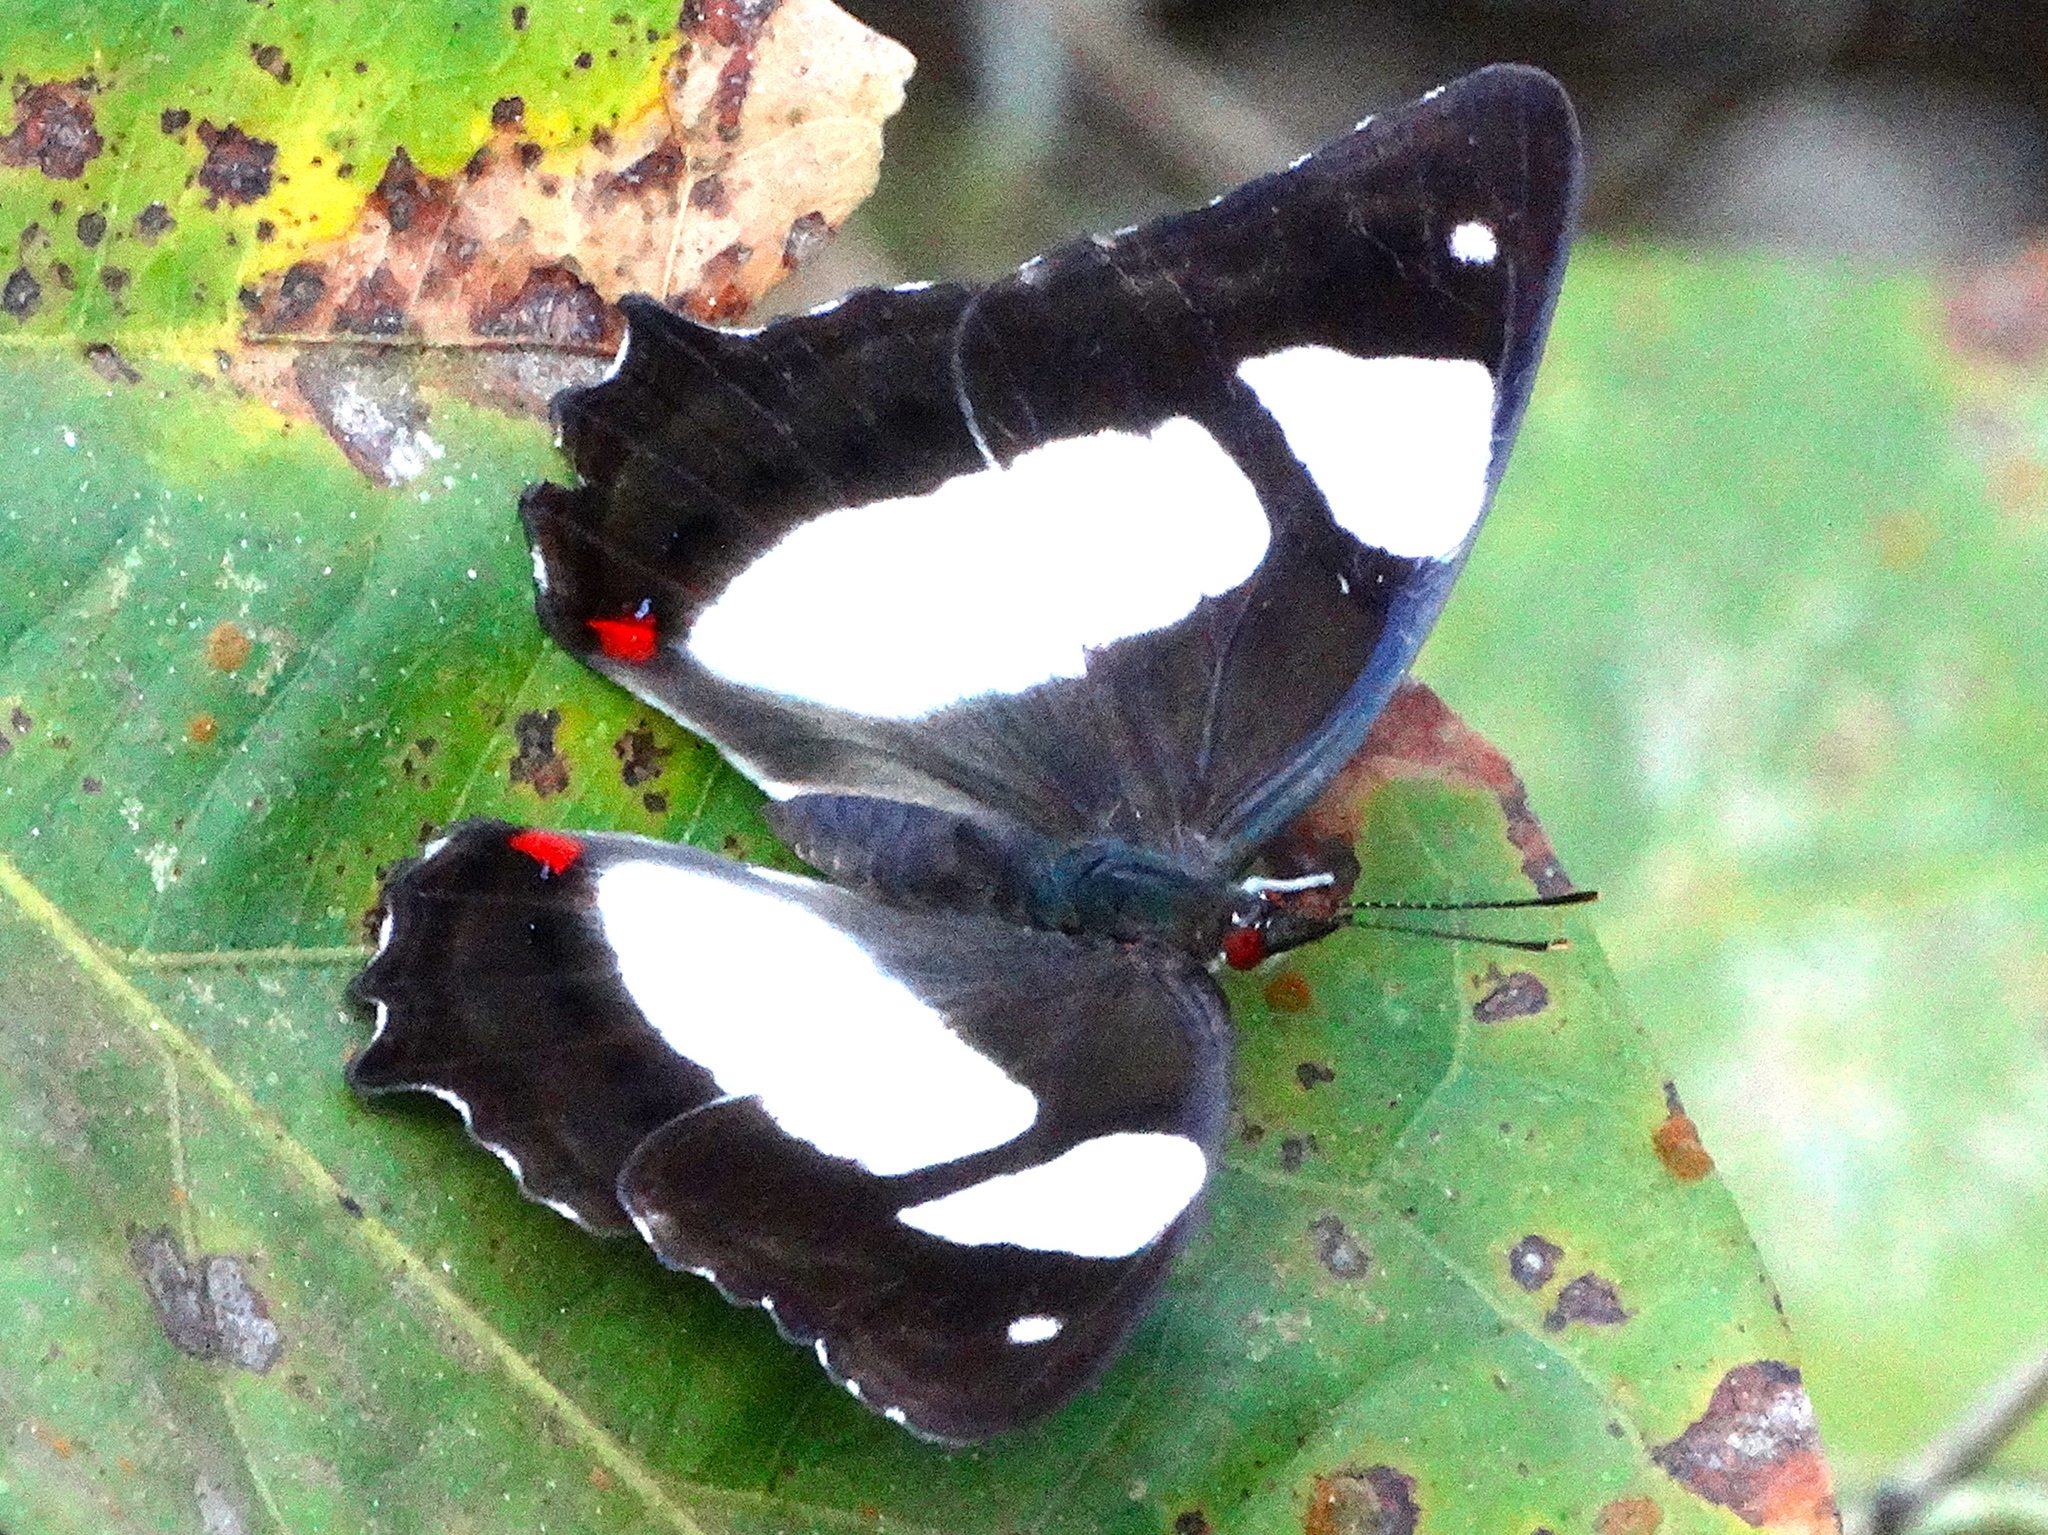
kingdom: Animalia
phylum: Arthropoda
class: Insecta
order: Lepidoptera
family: Nymphalidae
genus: Pyrrhogyra
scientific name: Pyrrhogyra neaerea
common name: Leading red-ring
